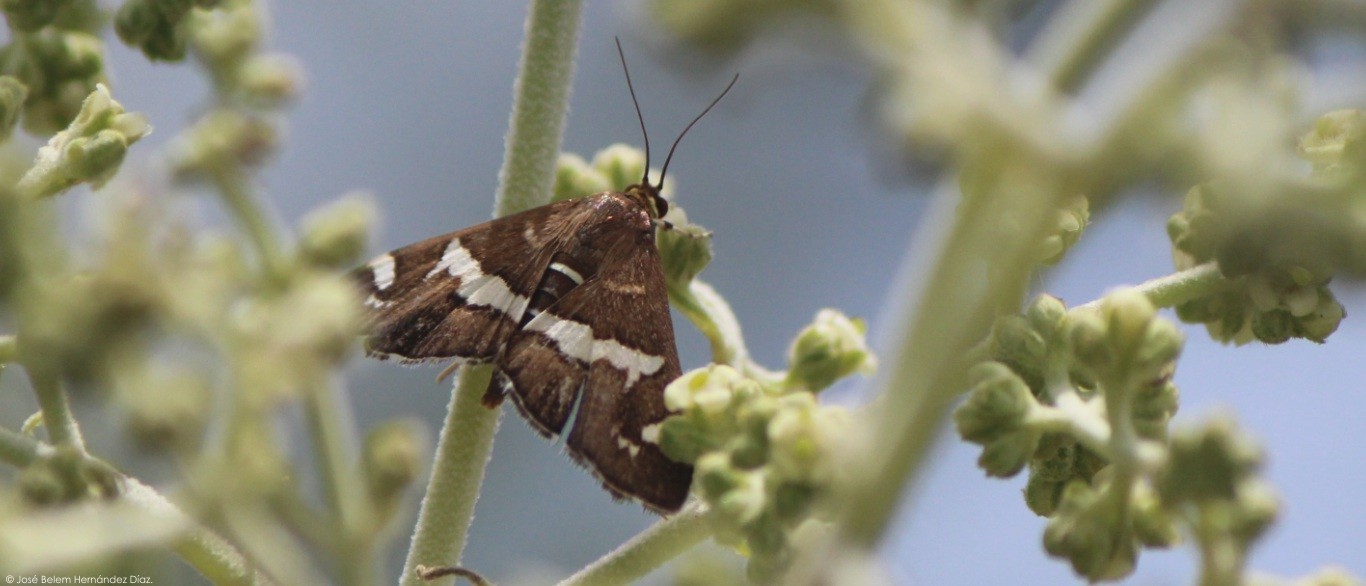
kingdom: Animalia
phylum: Arthropoda
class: Insecta
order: Lepidoptera
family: Crambidae
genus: Spoladea
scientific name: Spoladea recurvalis
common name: Beet webworm moth
